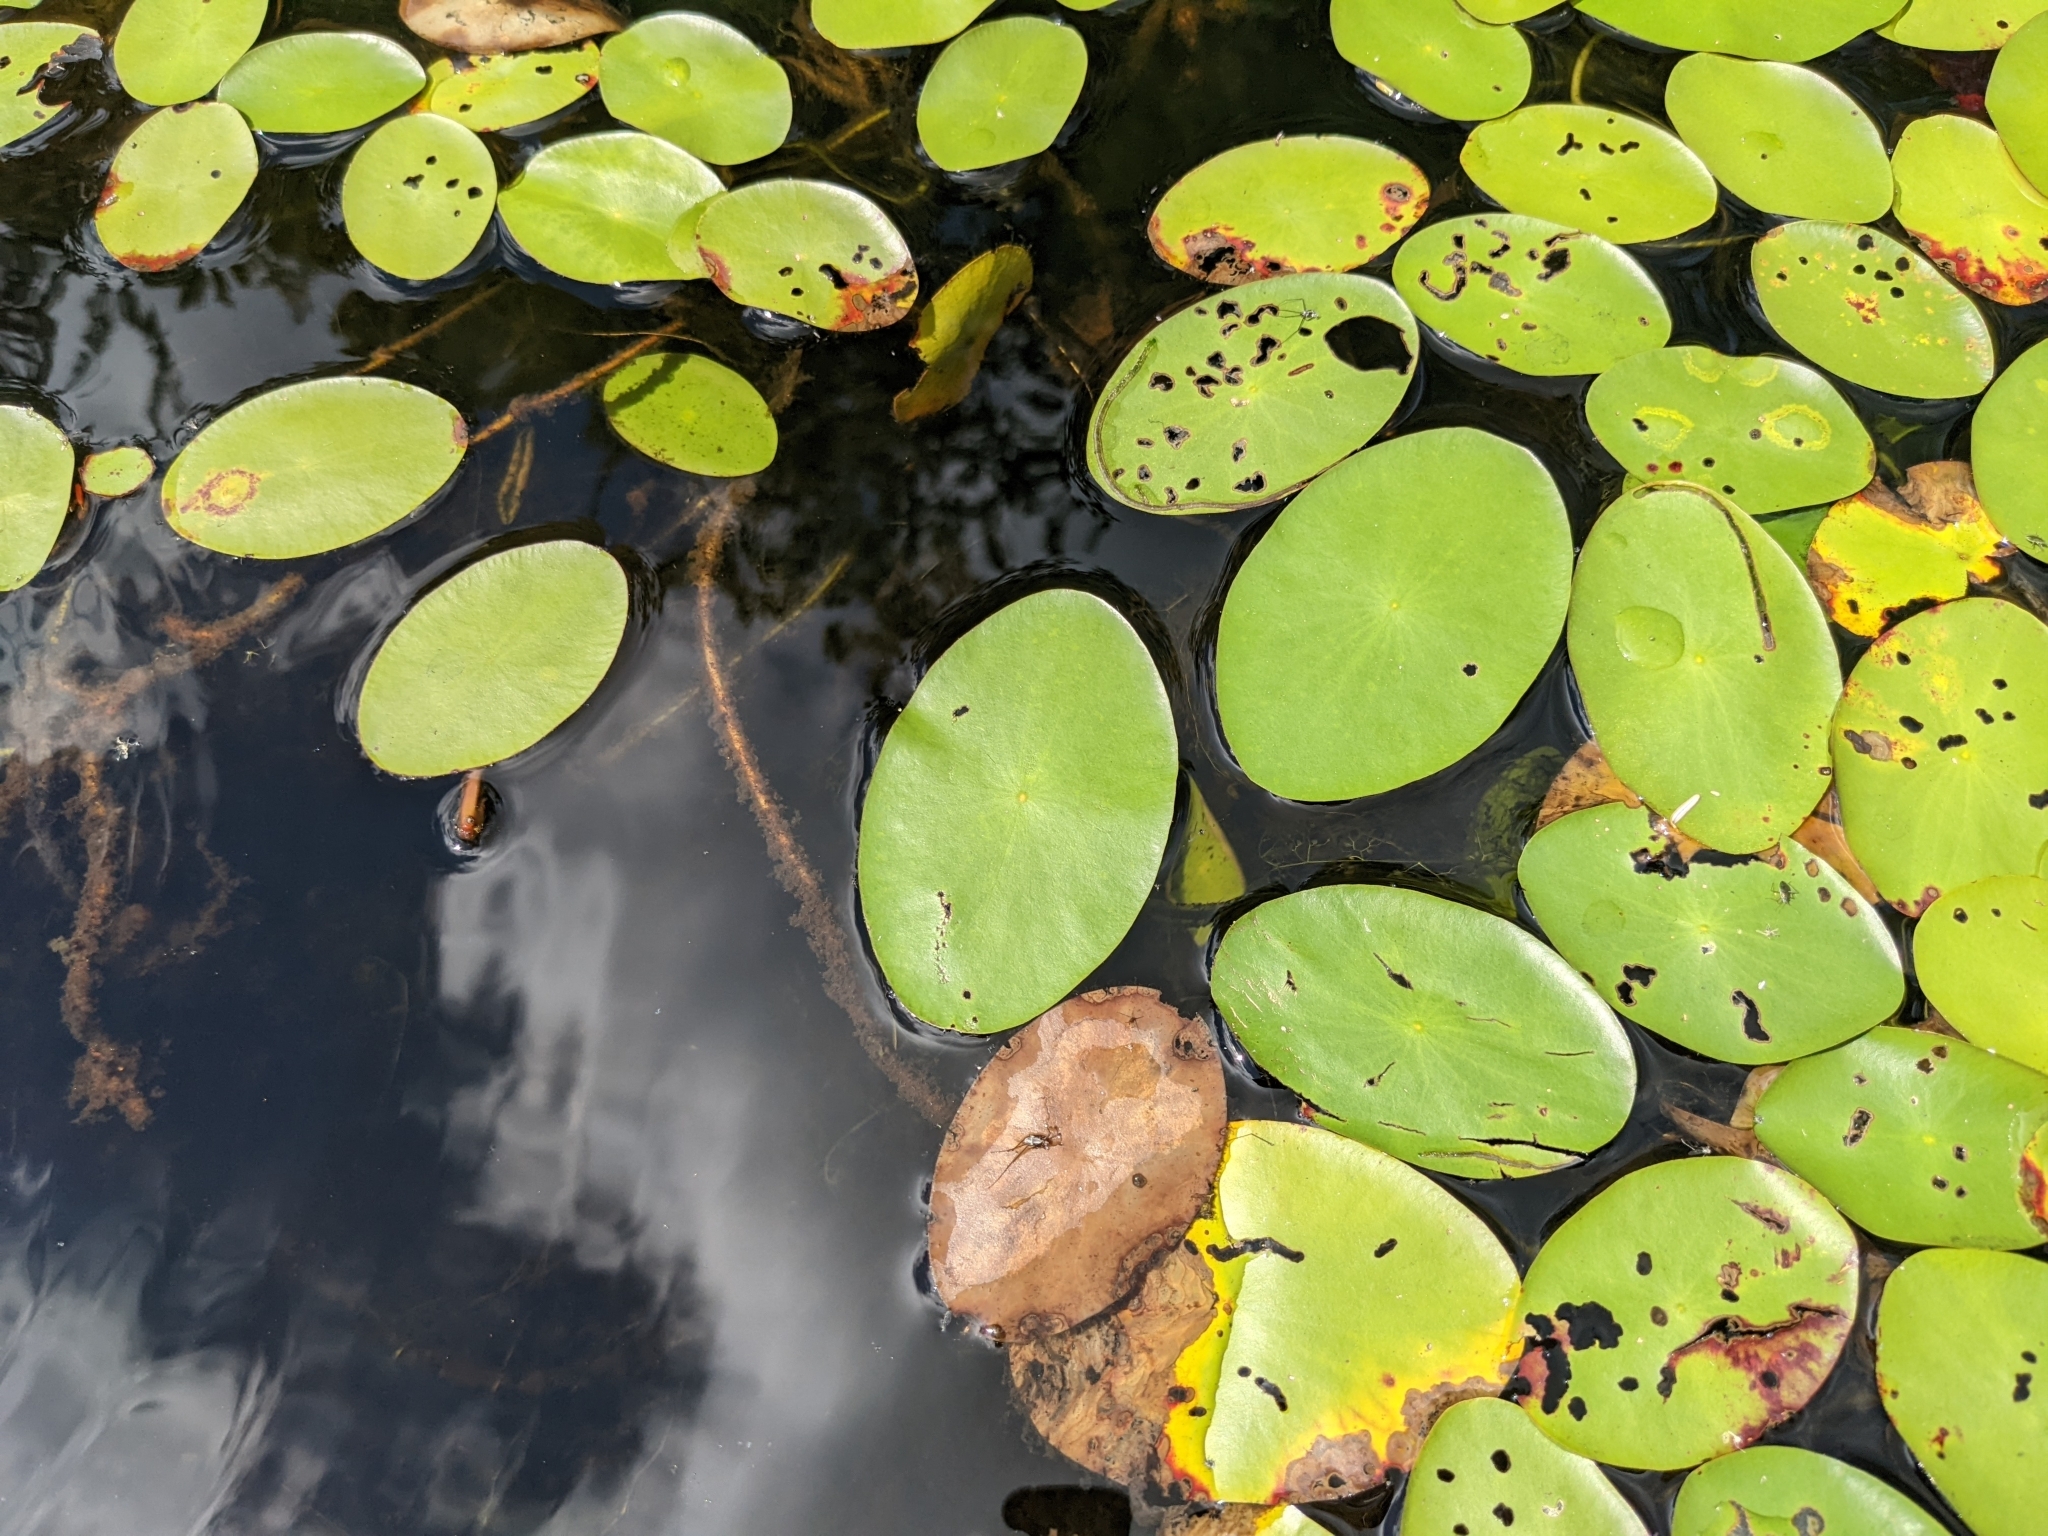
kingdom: Plantae
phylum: Tracheophyta
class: Magnoliopsida
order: Nymphaeales
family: Cabombaceae
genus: Brasenia
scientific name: Brasenia schreberi
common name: Water-shield
